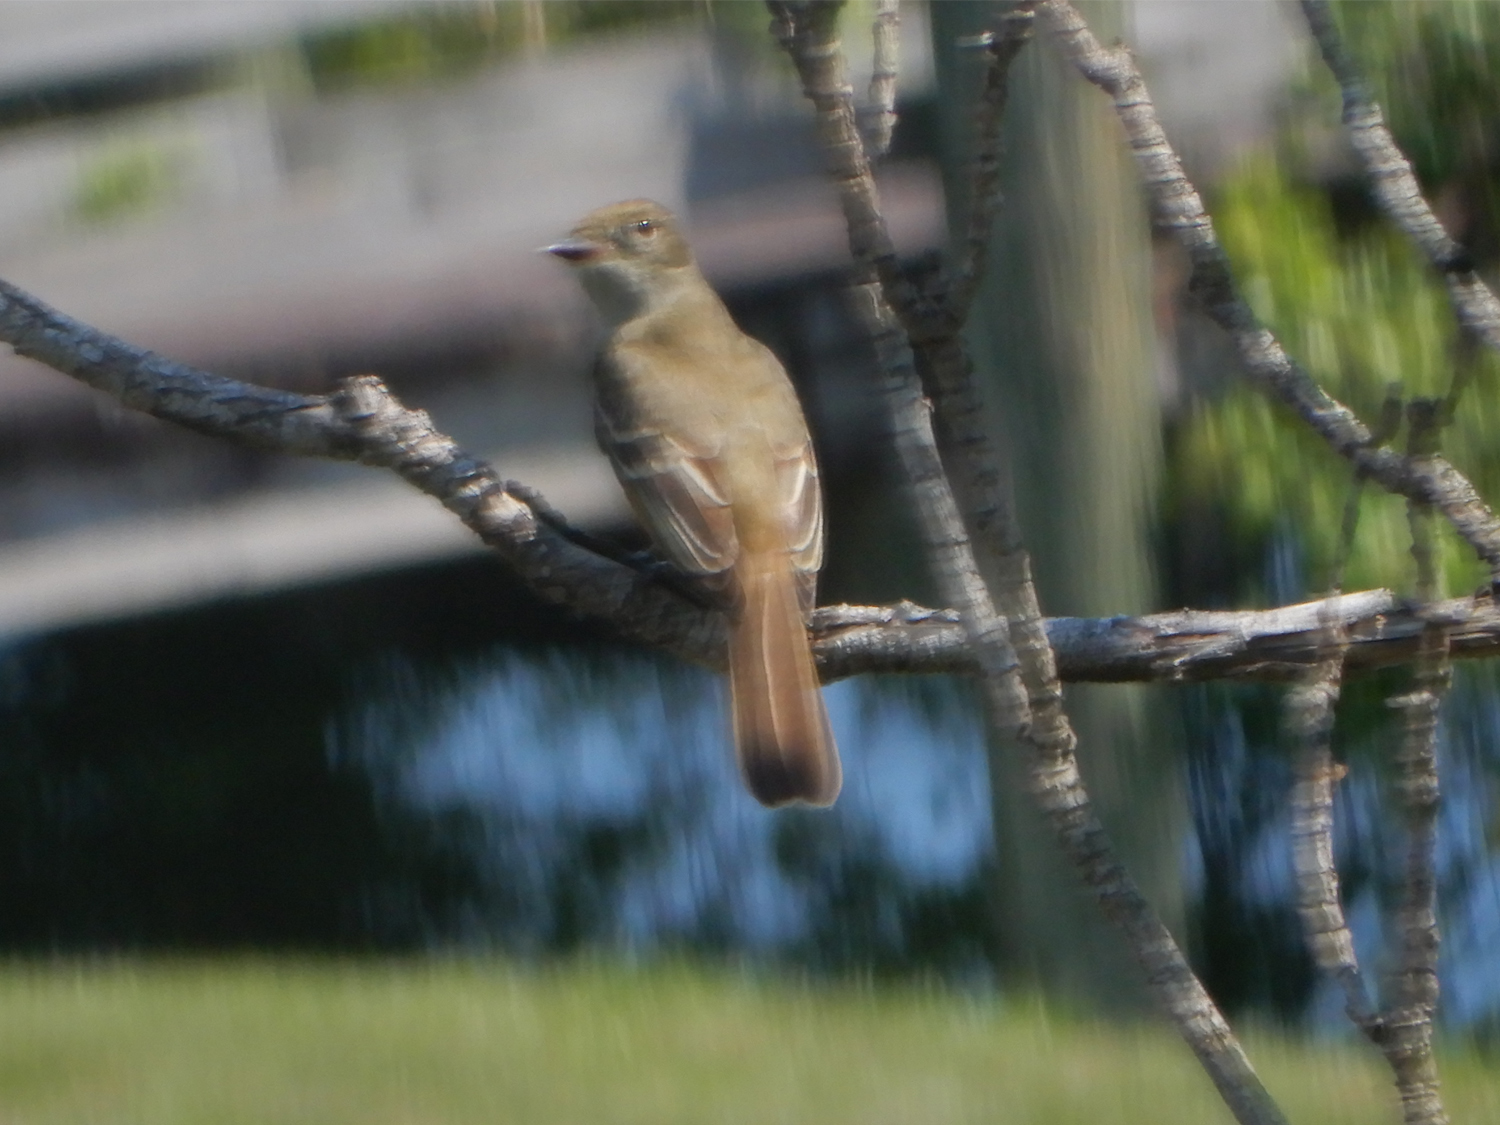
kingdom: Animalia
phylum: Chordata
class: Aves
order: Passeriformes
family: Tyrannidae
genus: Myiarchus
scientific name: Myiarchus crinitus
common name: Great crested flycatcher
